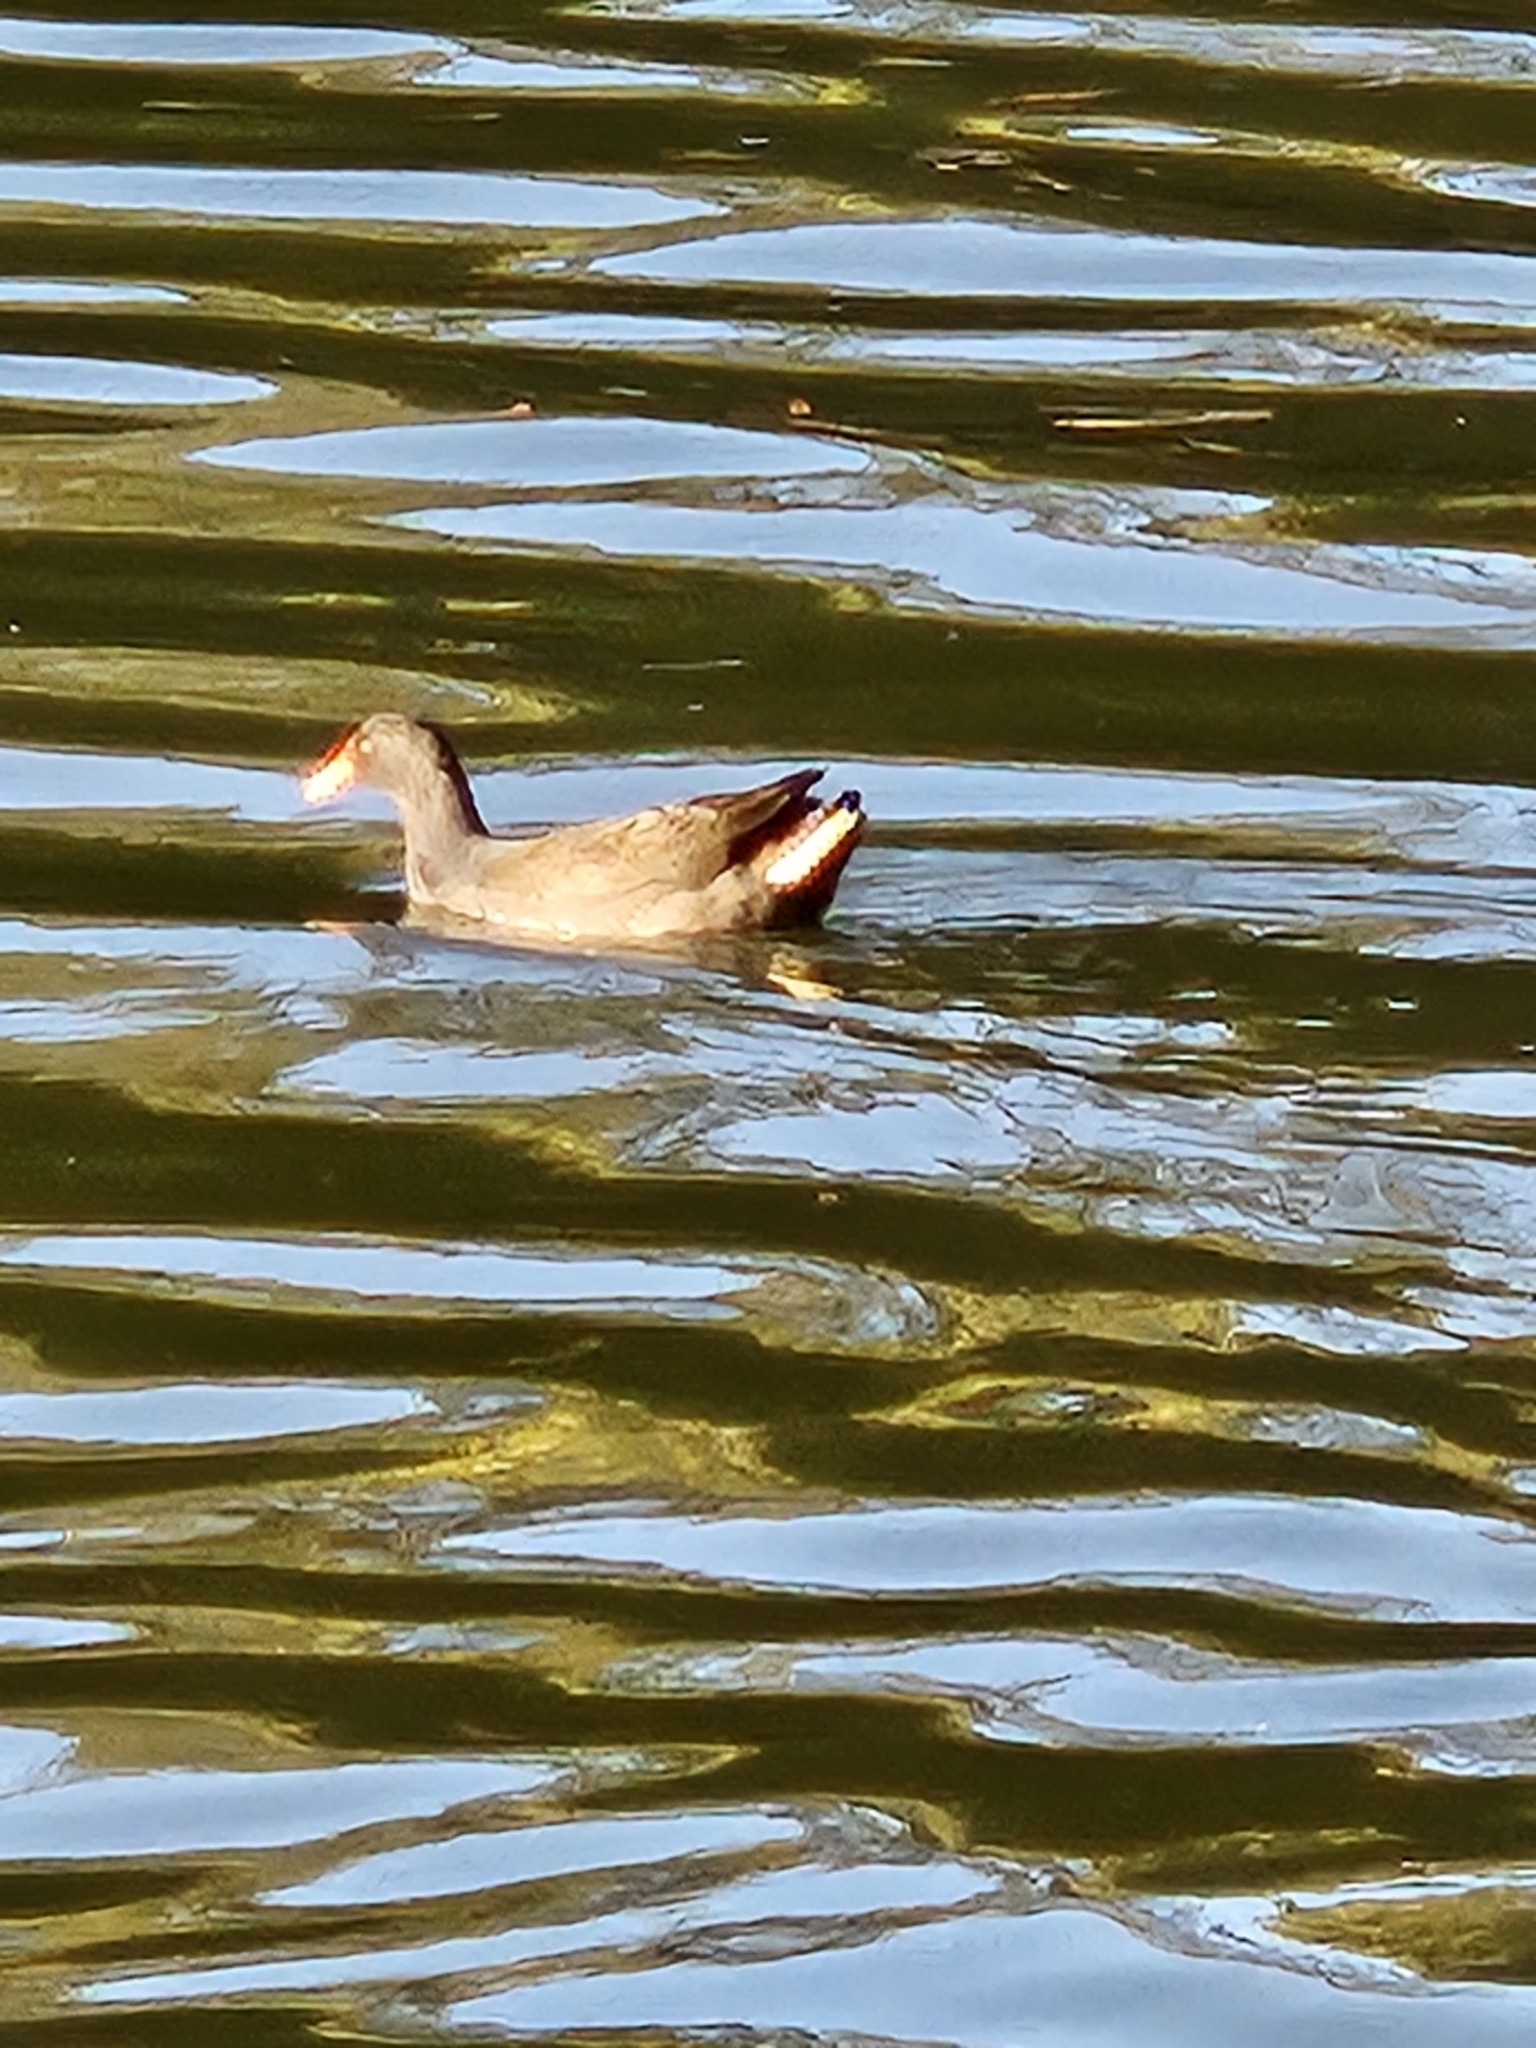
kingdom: Animalia
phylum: Chordata
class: Aves
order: Gruiformes
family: Rallidae
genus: Gallinula
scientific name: Gallinula tenebrosa
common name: Dusky moorhen
